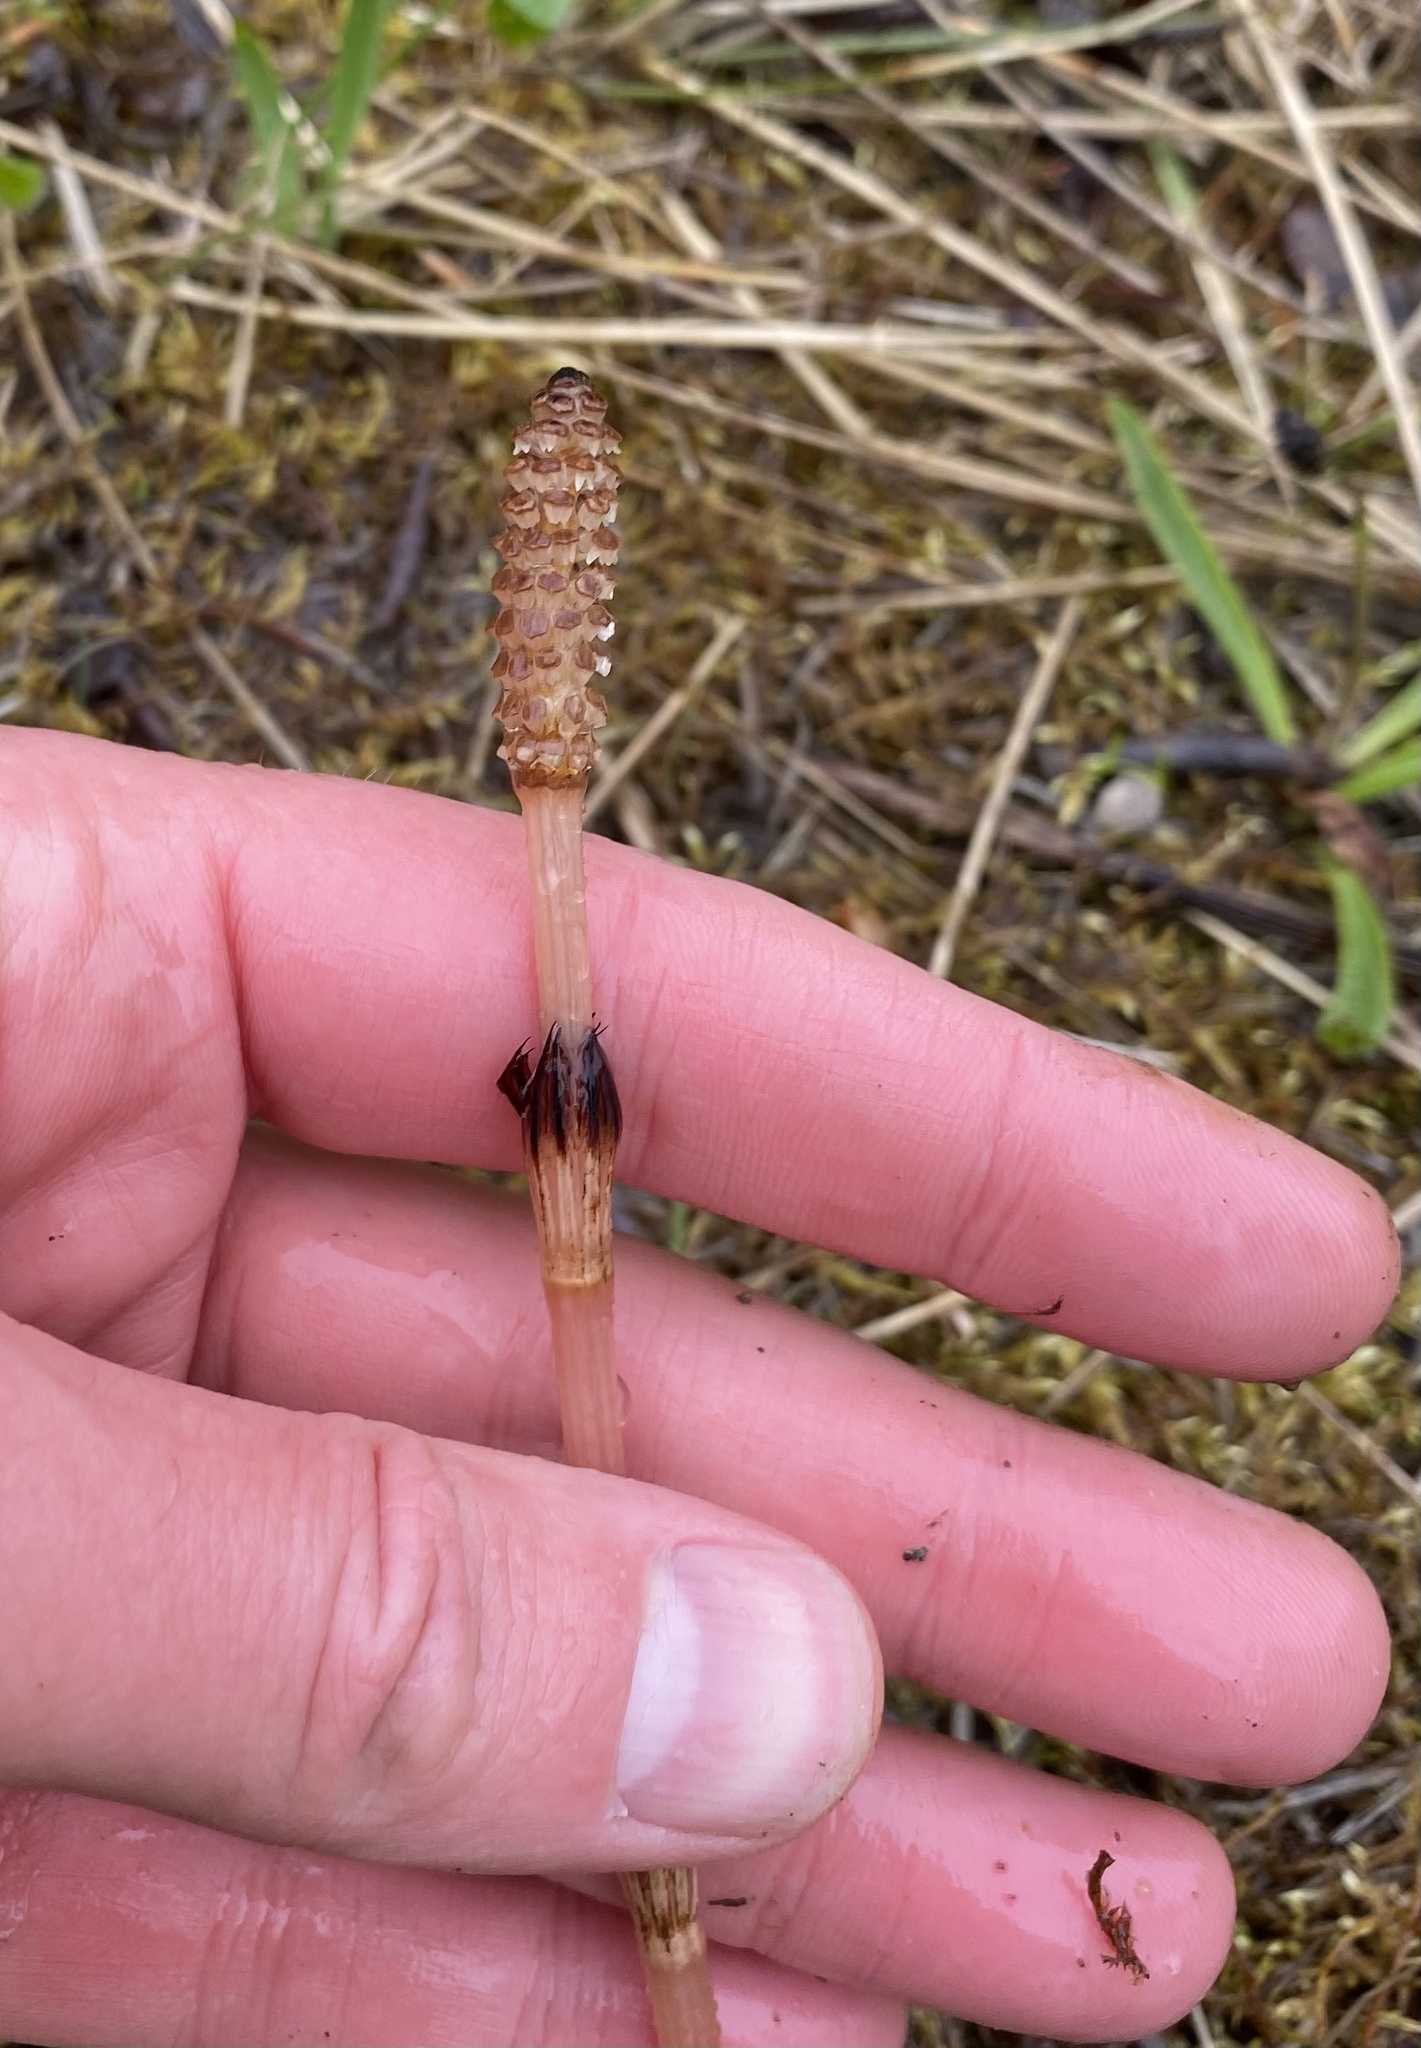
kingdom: Plantae
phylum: Tracheophyta
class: Polypodiopsida
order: Equisetales
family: Equisetaceae
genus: Equisetum
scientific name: Equisetum arvense
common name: Field horsetail
